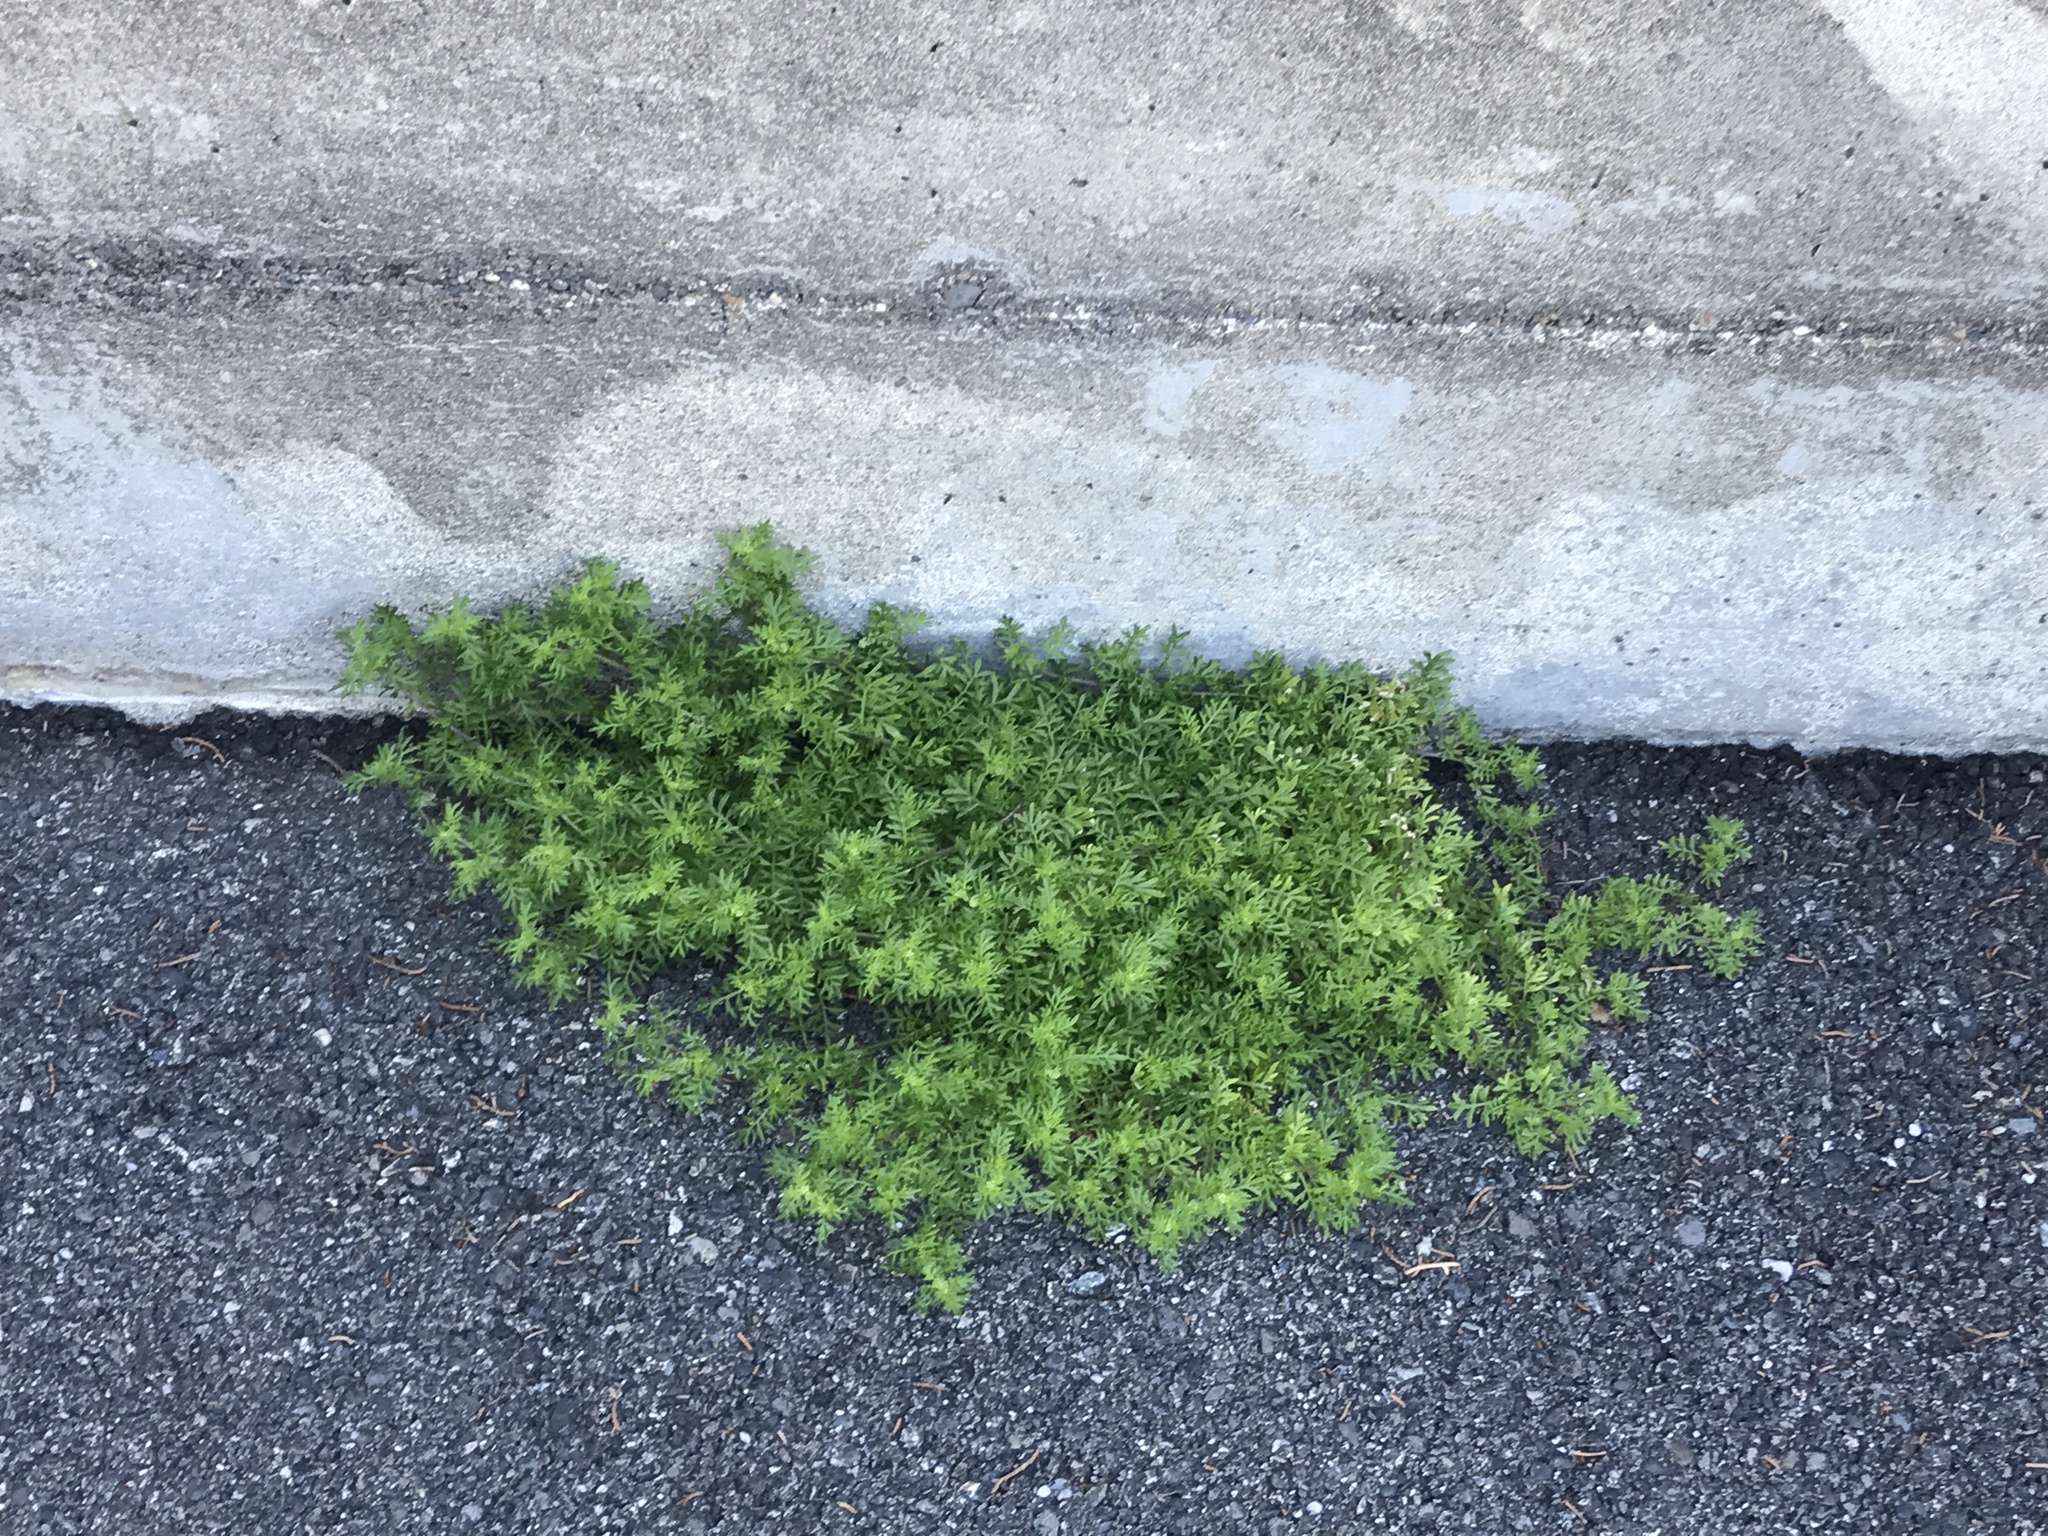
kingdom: Plantae
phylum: Tracheophyta
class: Magnoliopsida
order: Brassicales
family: Brassicaceae
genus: Lepidium
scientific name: Lepidium didymum
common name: Lesser swinecress
